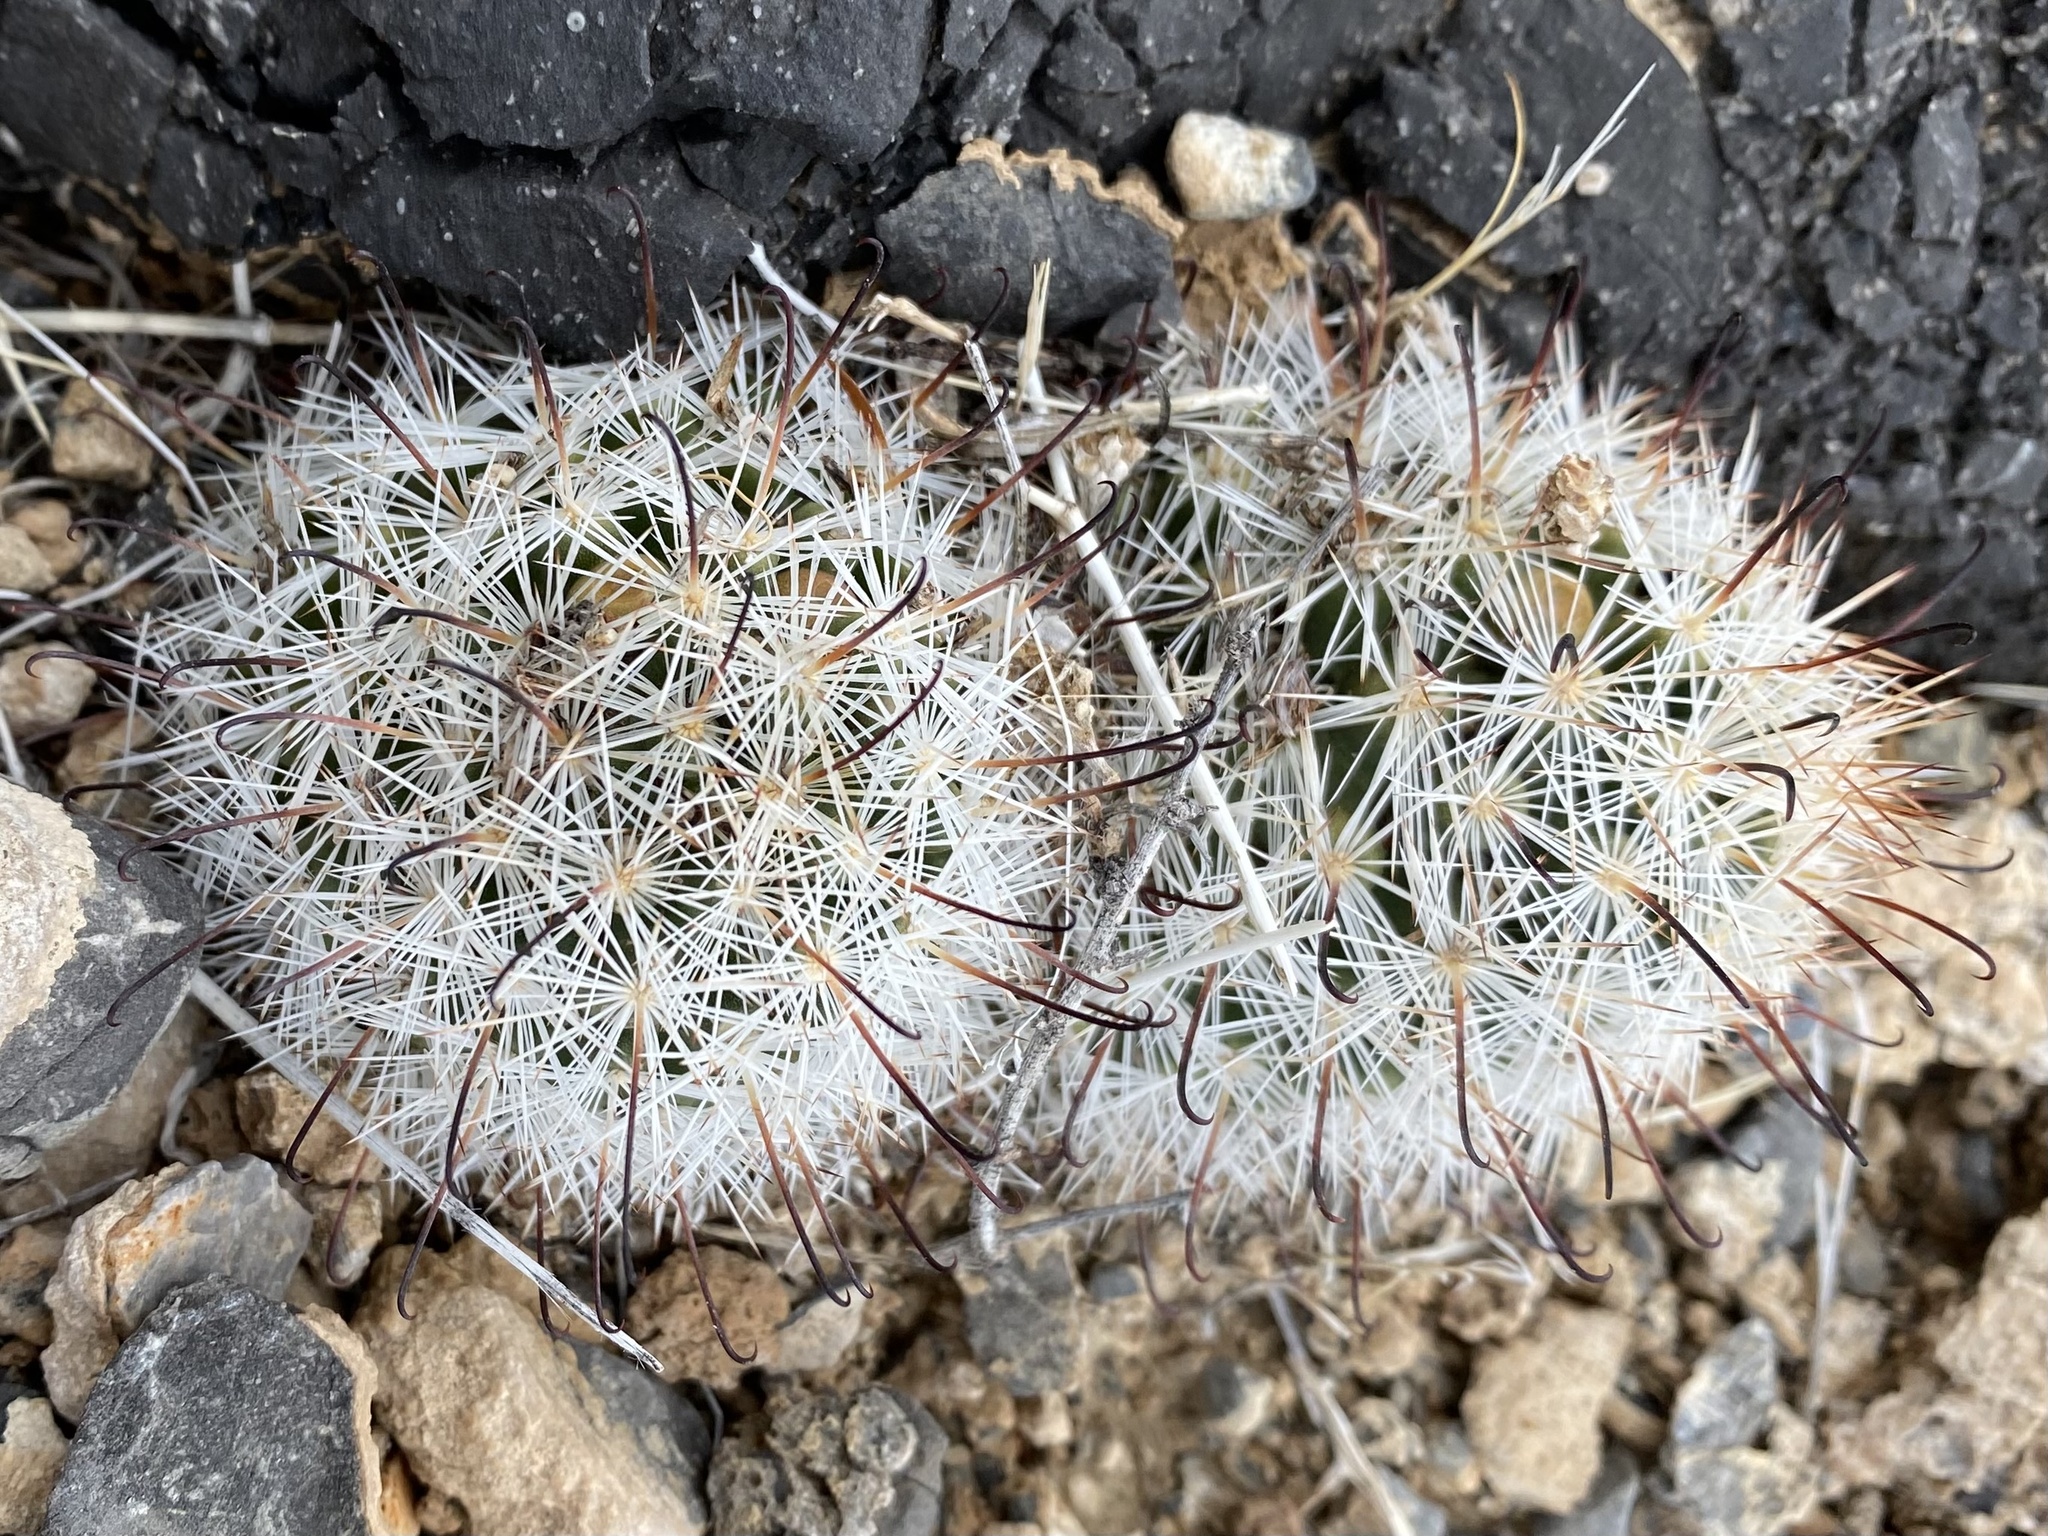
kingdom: Plantae
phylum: Tracheophyta
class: Magnoliopsida
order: Caryophyllales
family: Cactaceae
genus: Cochemiea
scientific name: Cochemiea tetrancistra
